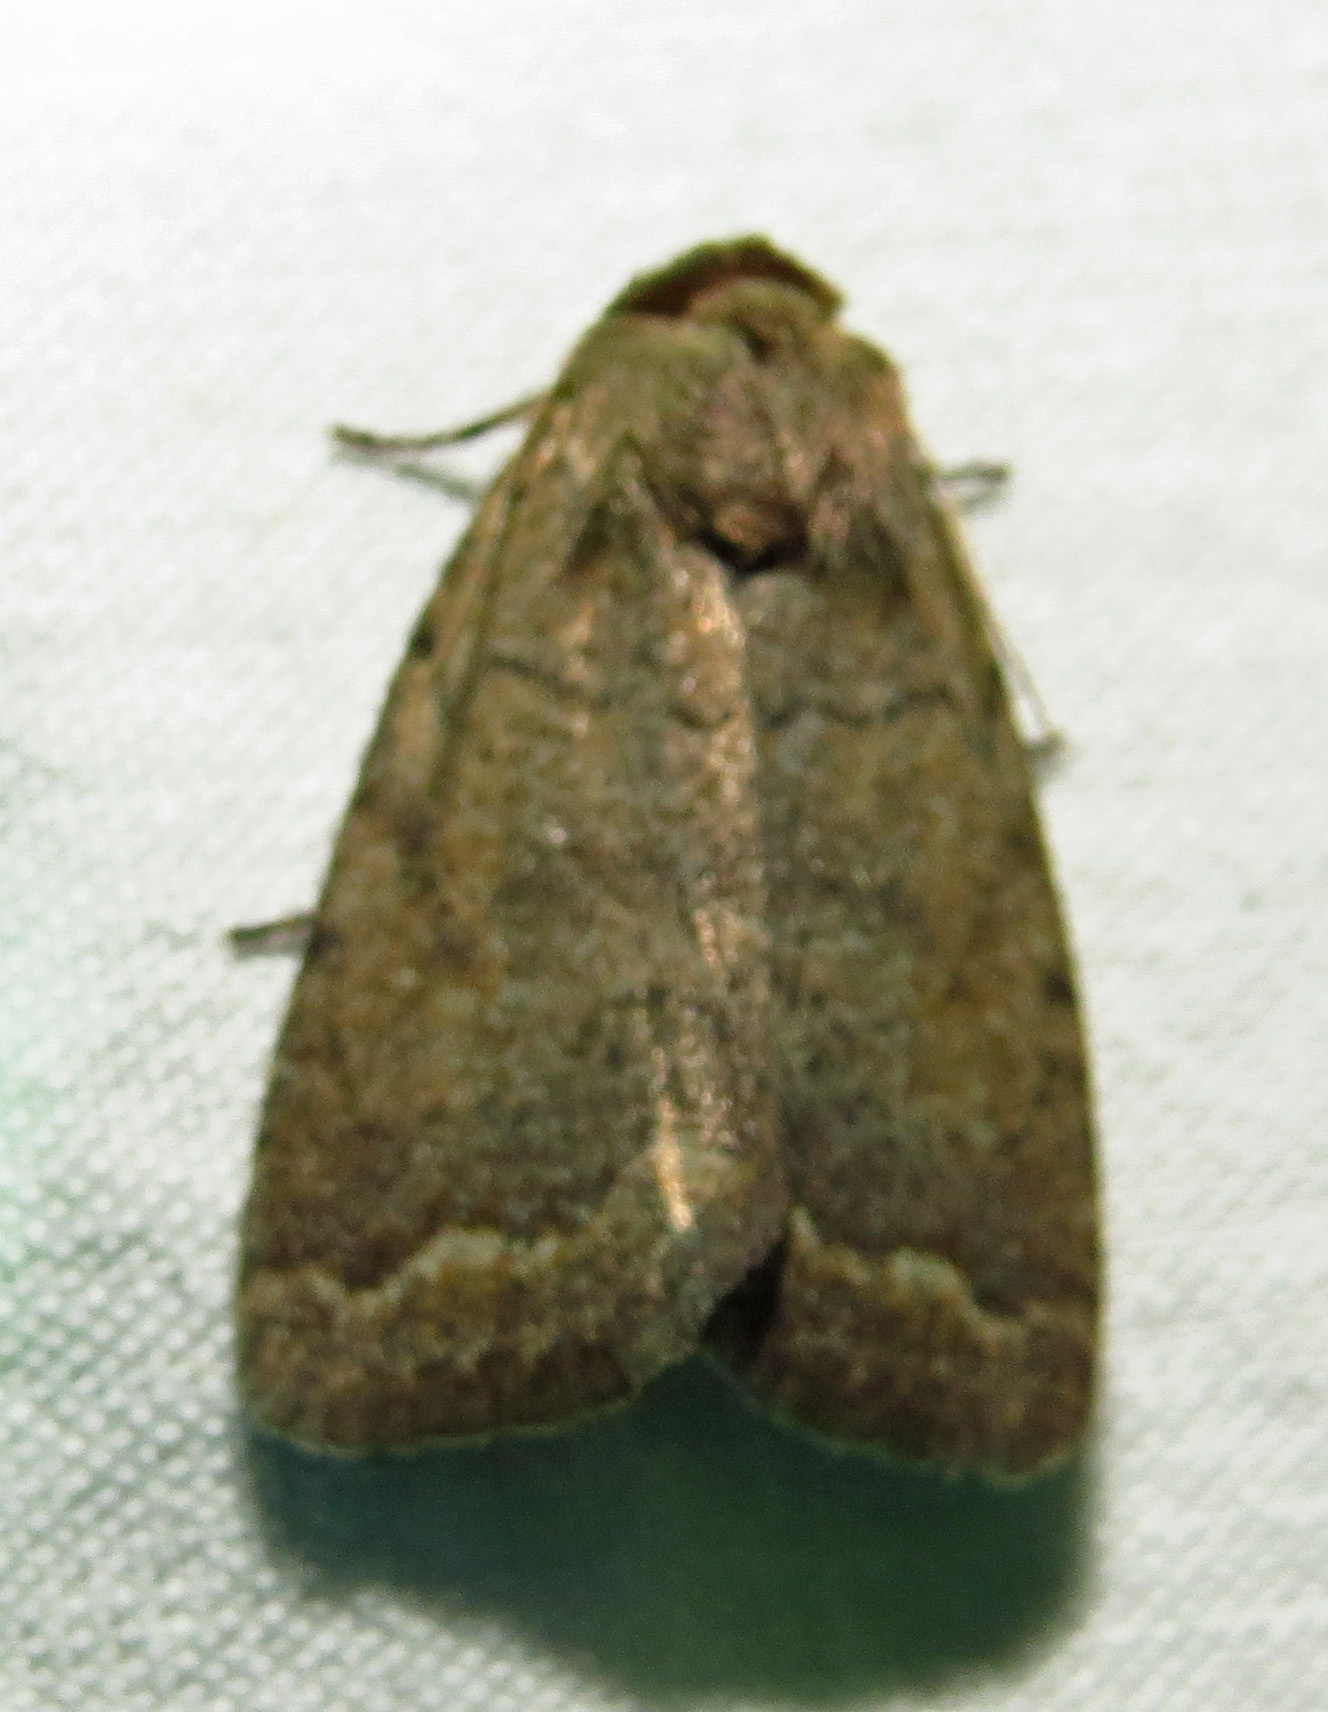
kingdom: Animalia
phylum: Arthropoda
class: Insecta
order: Lepidoptera
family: Noctuidae
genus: Athetis
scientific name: Athetis tarda
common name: Slowpoke moth
